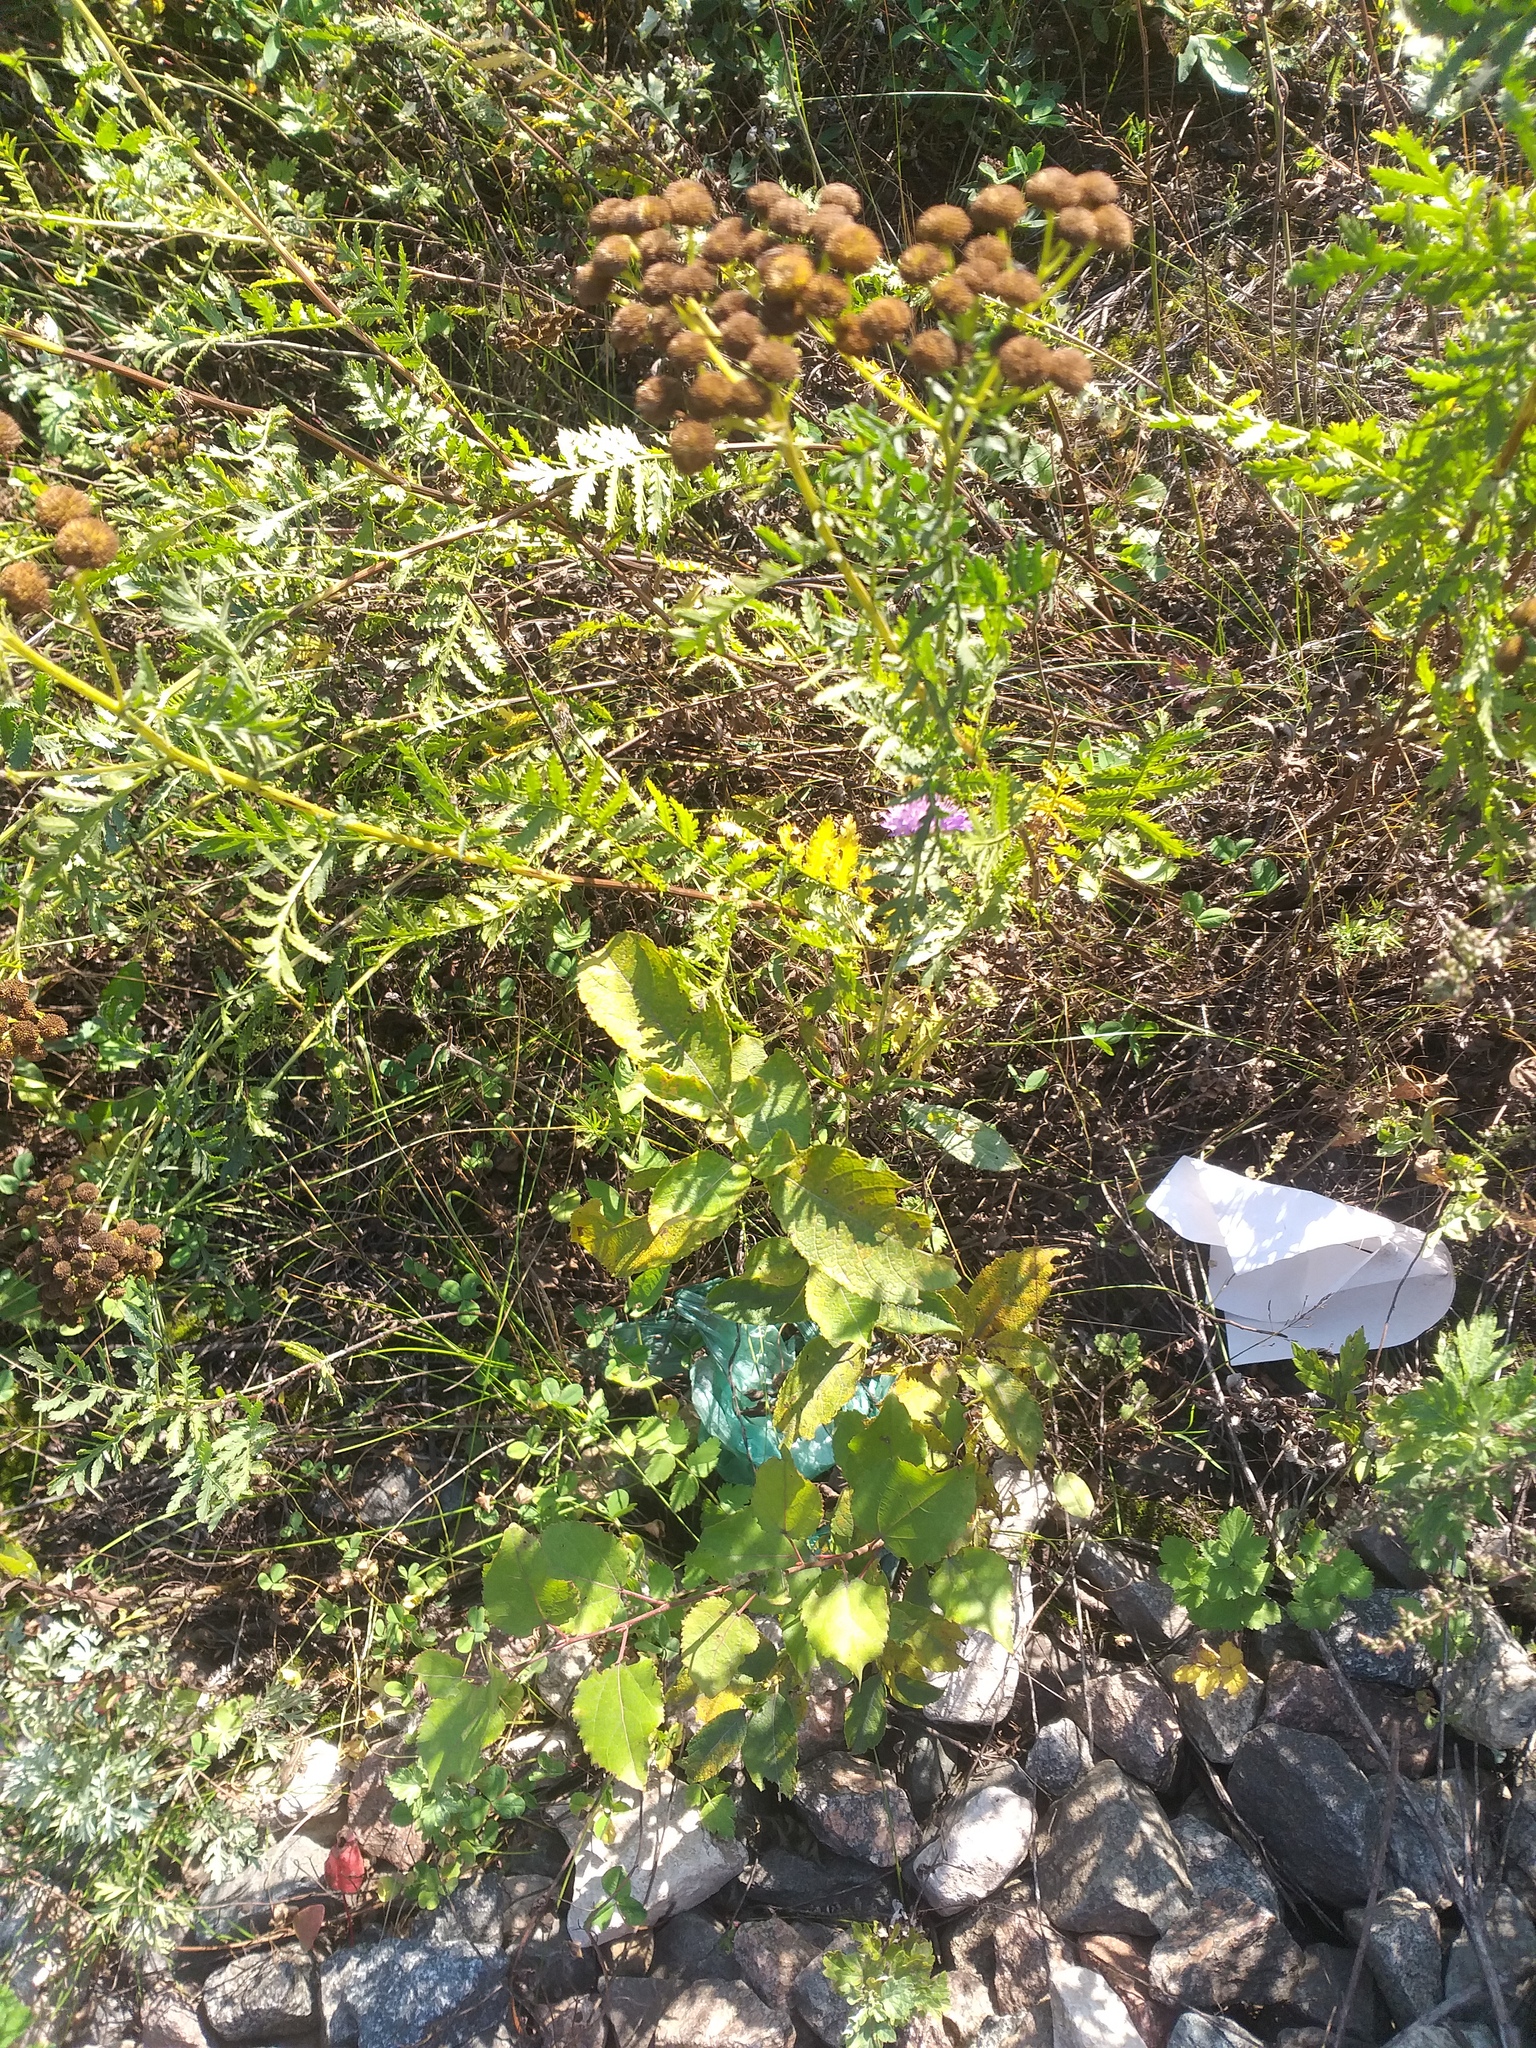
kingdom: Plantae
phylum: Tracheophyta
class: Magnoliopsida
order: Malpighiales
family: Salicaceae
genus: Salix
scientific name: Salix caprea
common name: Goat willow
